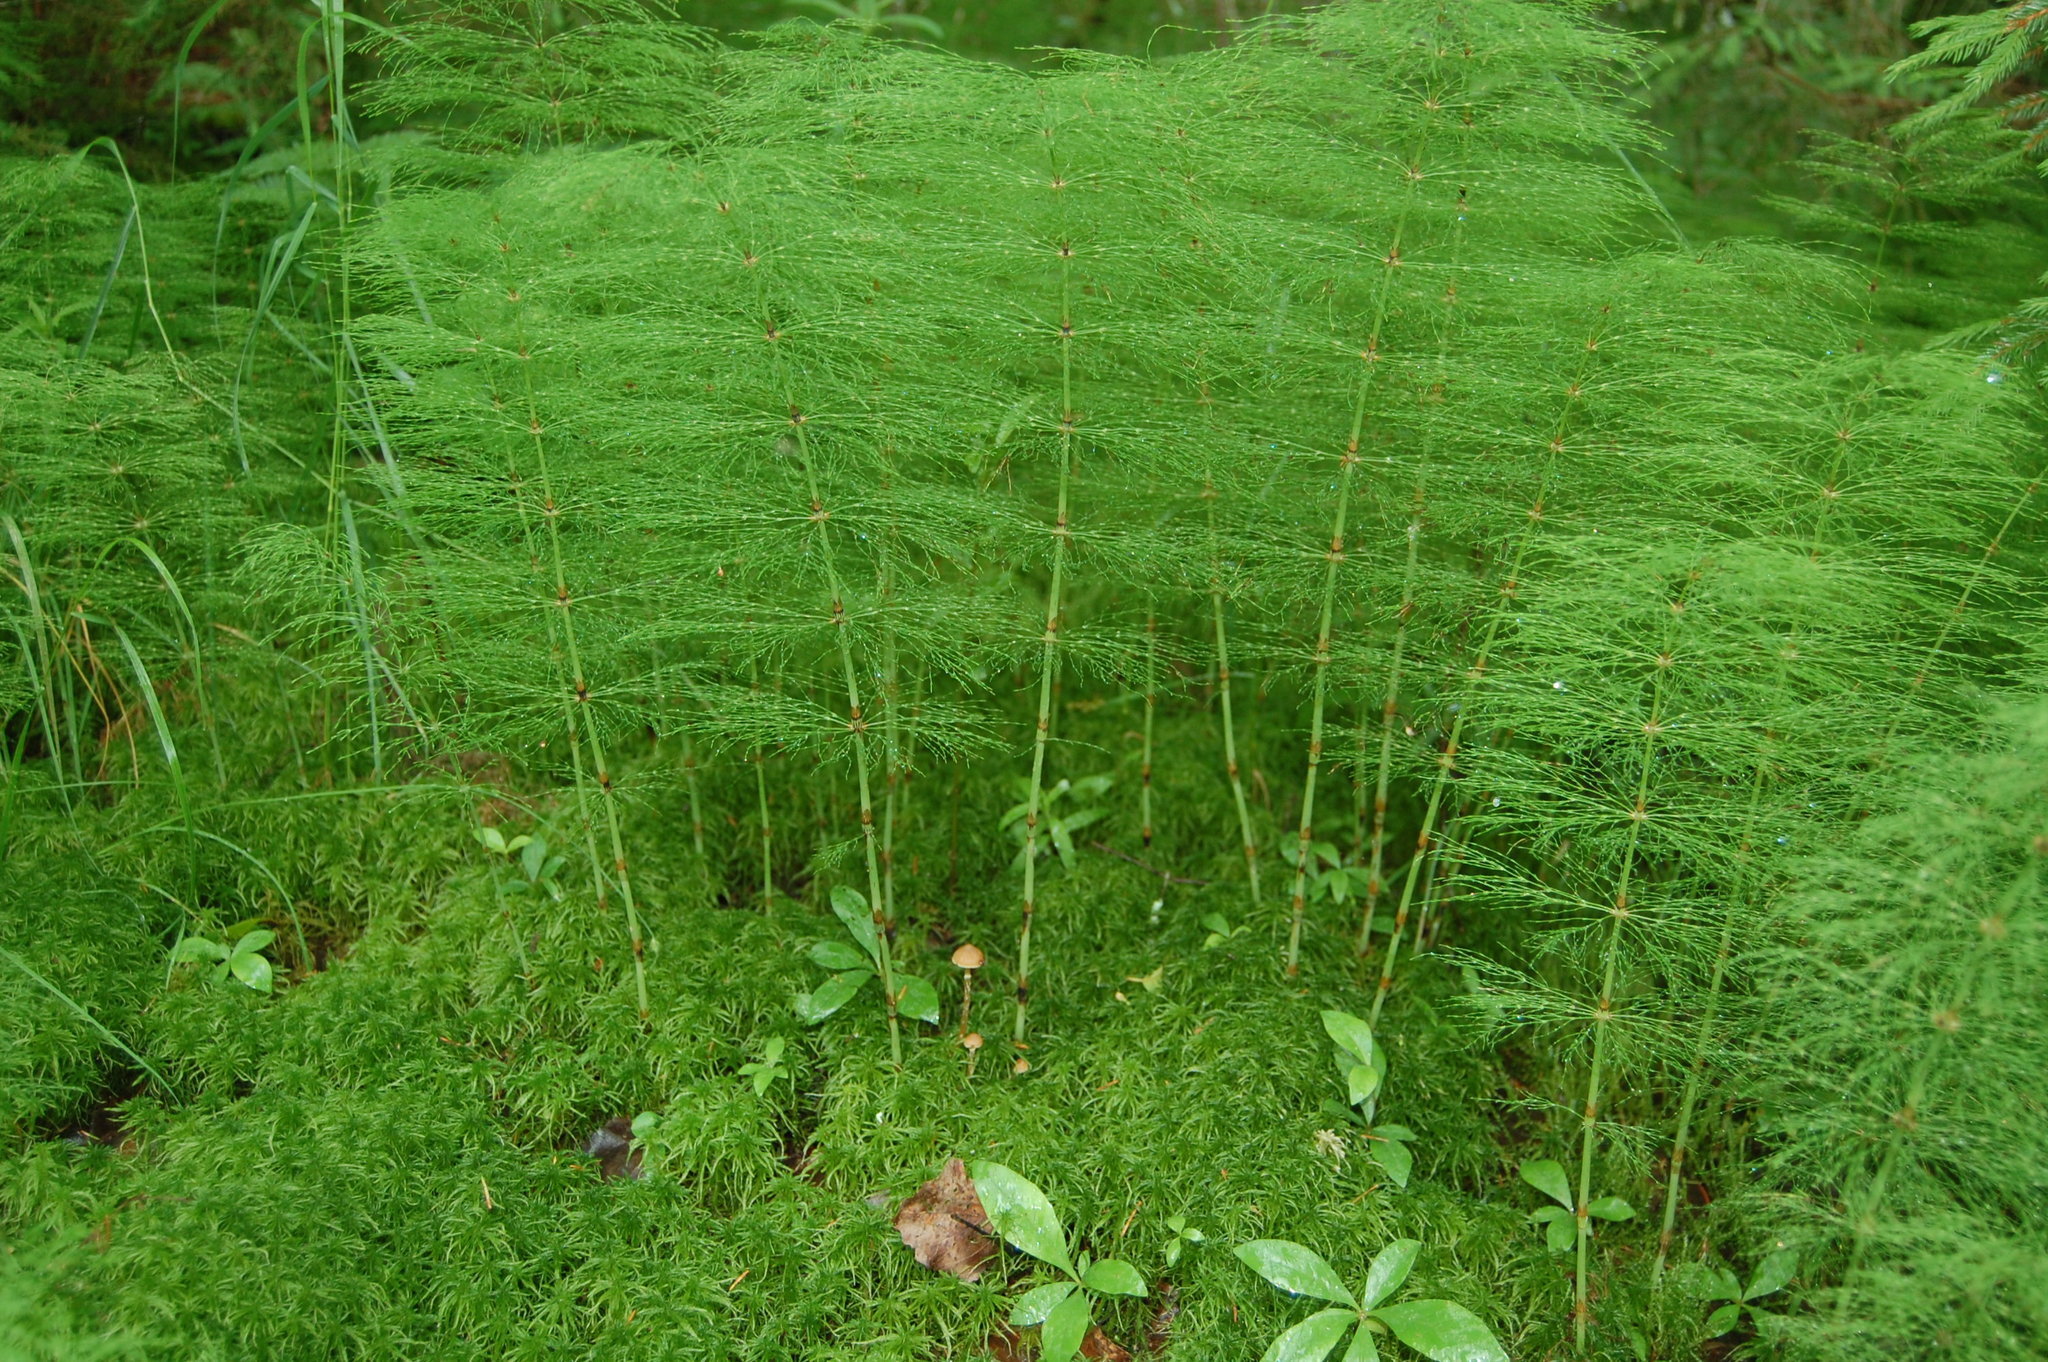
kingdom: Plantae
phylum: Tracheophyta
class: Polypodiopsida
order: Equisetales
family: Equisetaceae
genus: Equisetum
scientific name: Equisetum sylvaticum
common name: Wood horsetail
